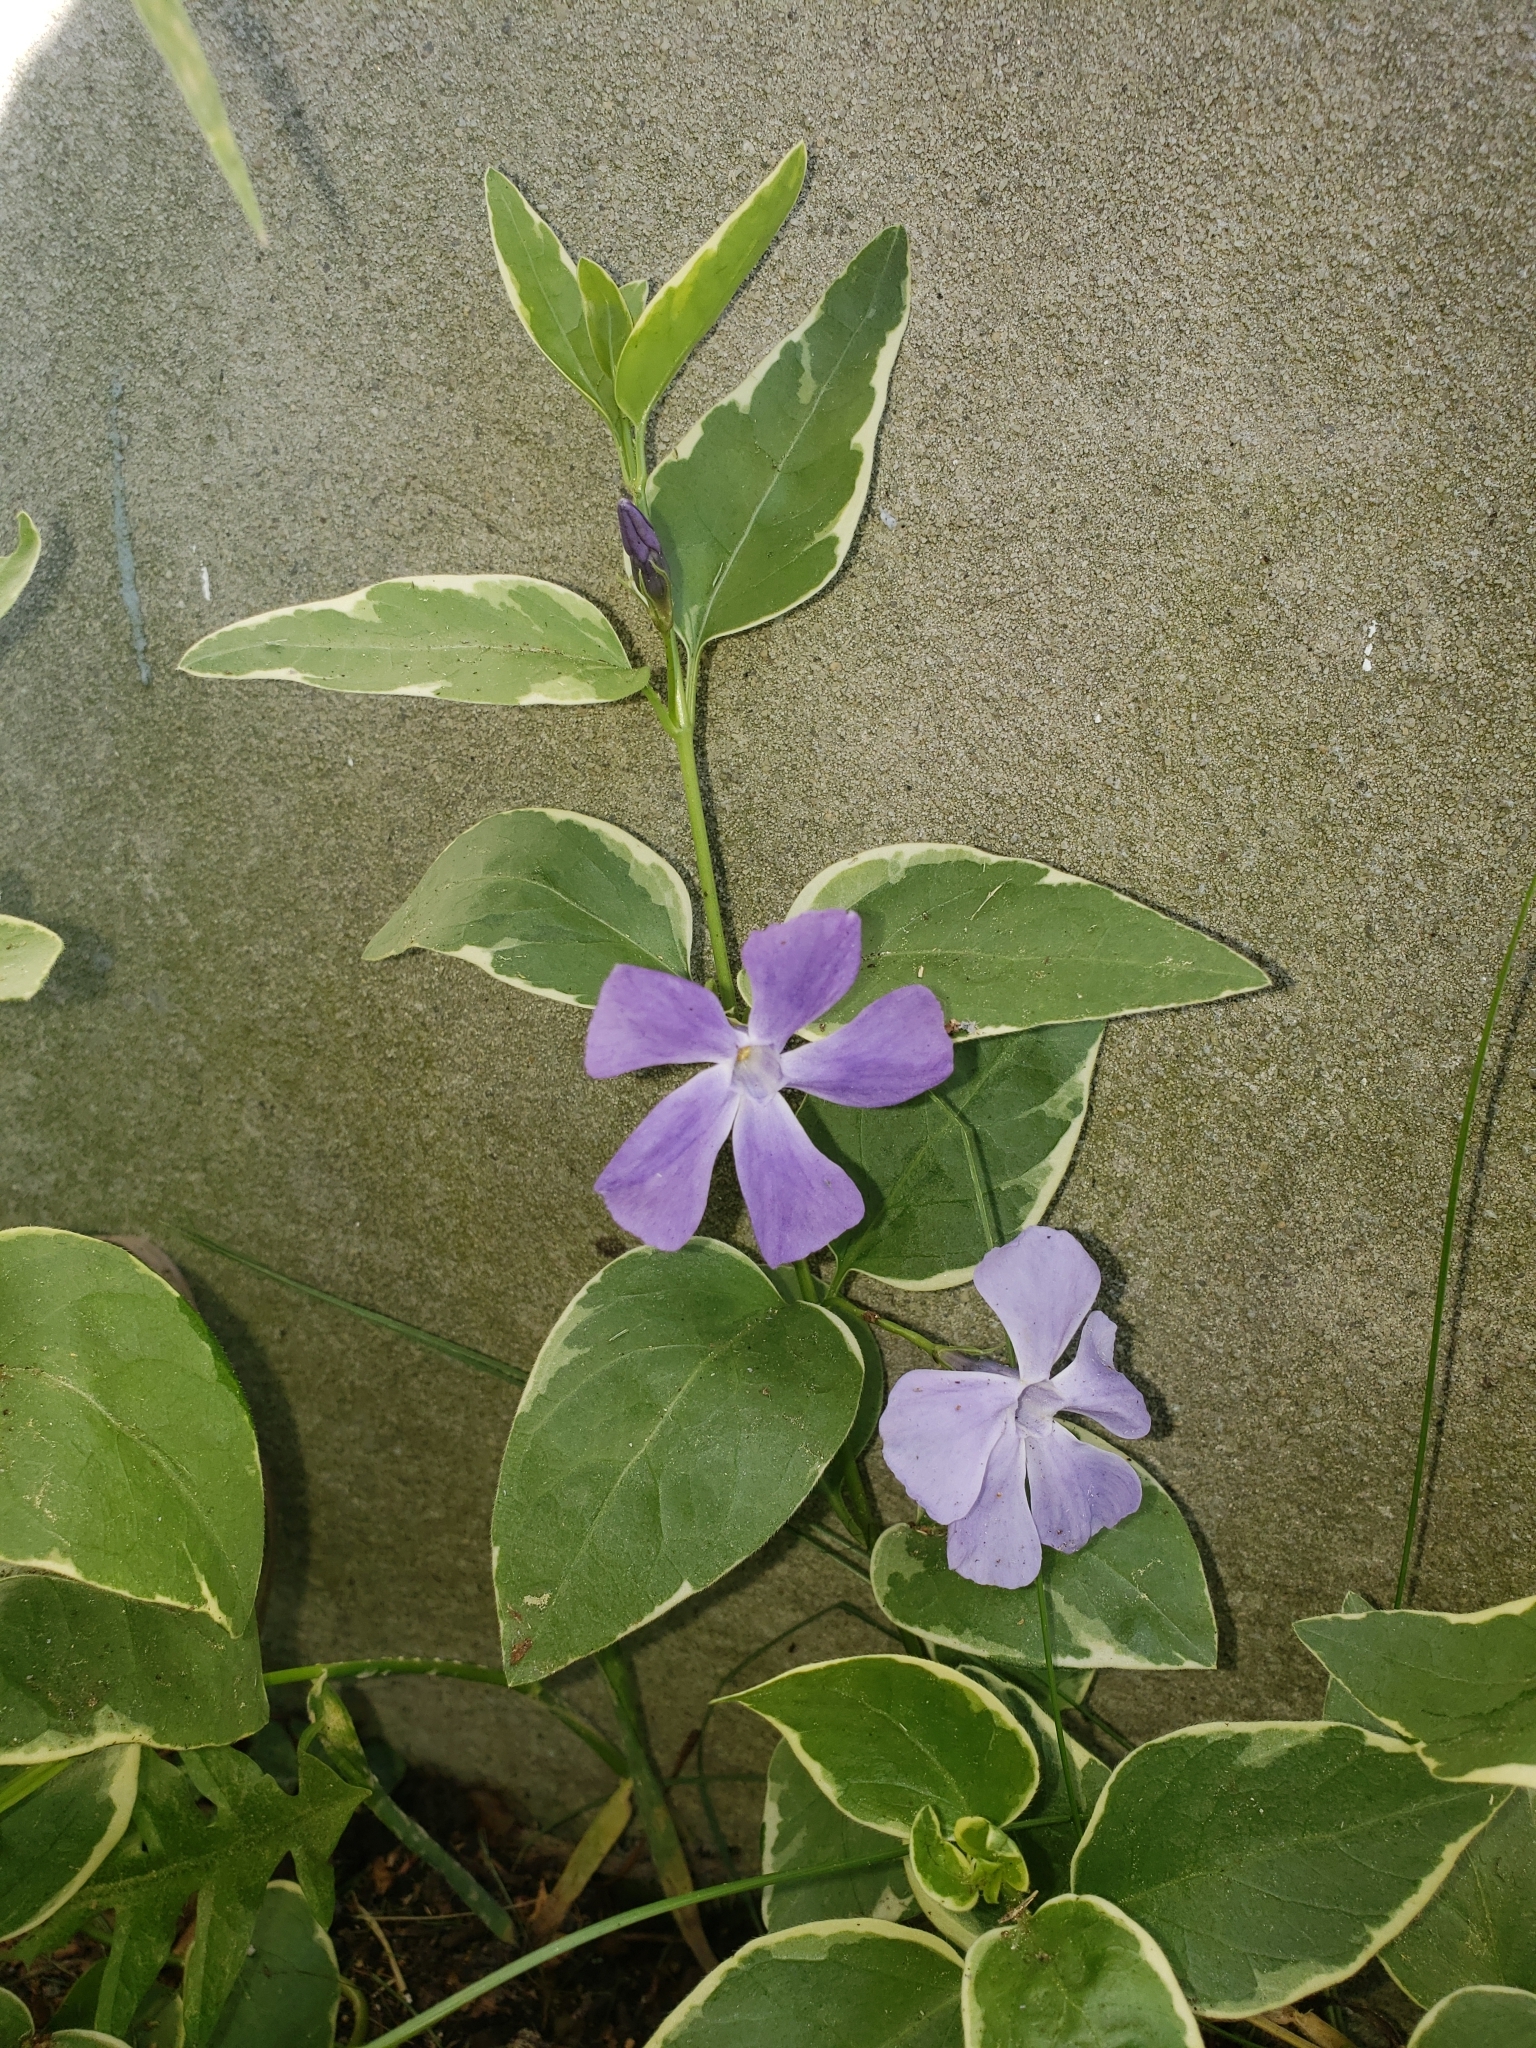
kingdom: Plantae
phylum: Tracheophyta
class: Magnoliopsida
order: Gentianales
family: Apocynaceae
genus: Vinca
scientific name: Vinca major
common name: Greater periwinkle
